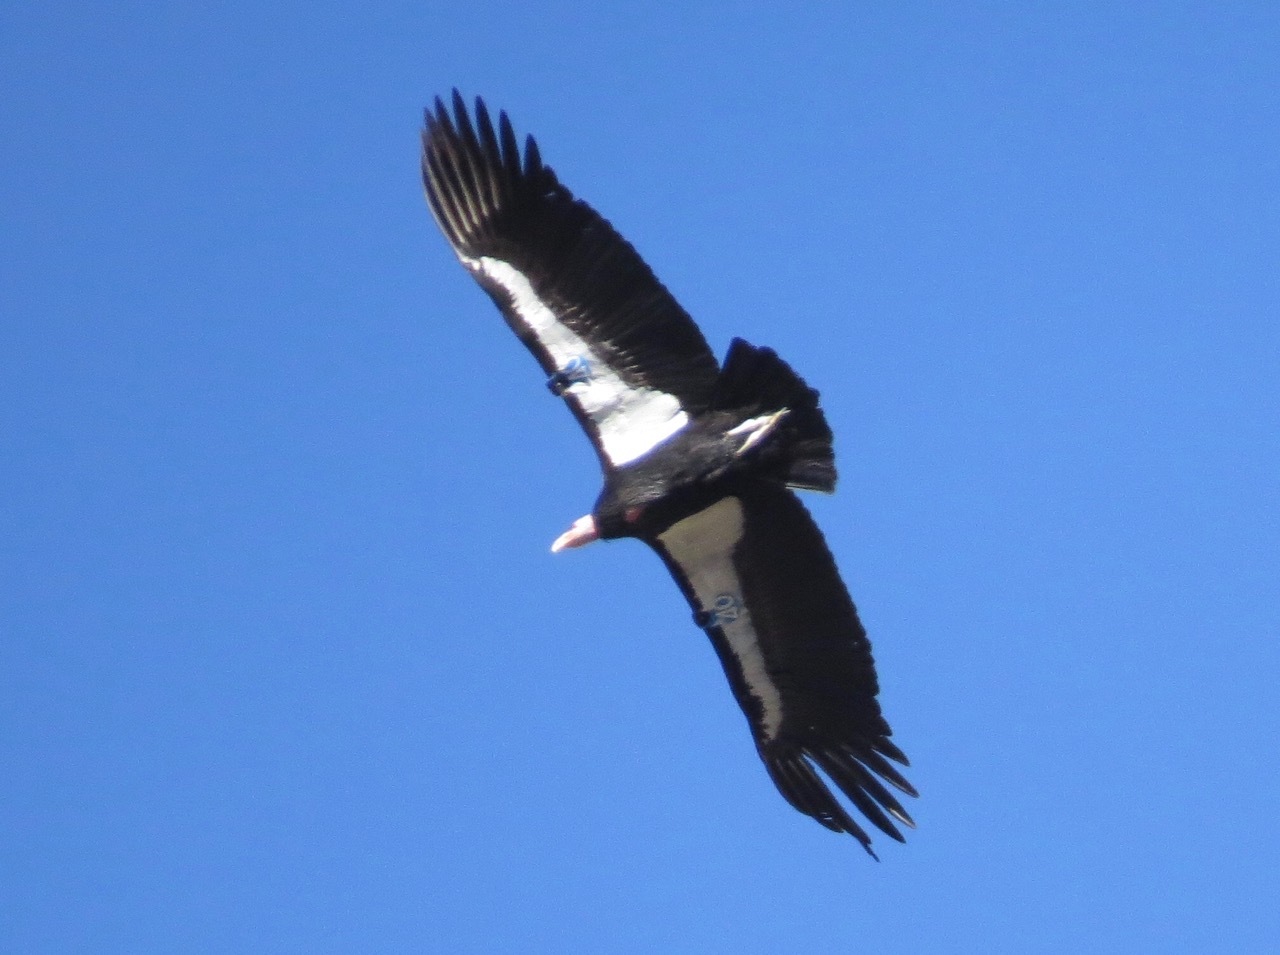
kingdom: Animalia
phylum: Chordata
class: Aves
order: Accipitriformes
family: Cathartidae
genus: Gymnogyps
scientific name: Gymnogyps californianus
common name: California condor
